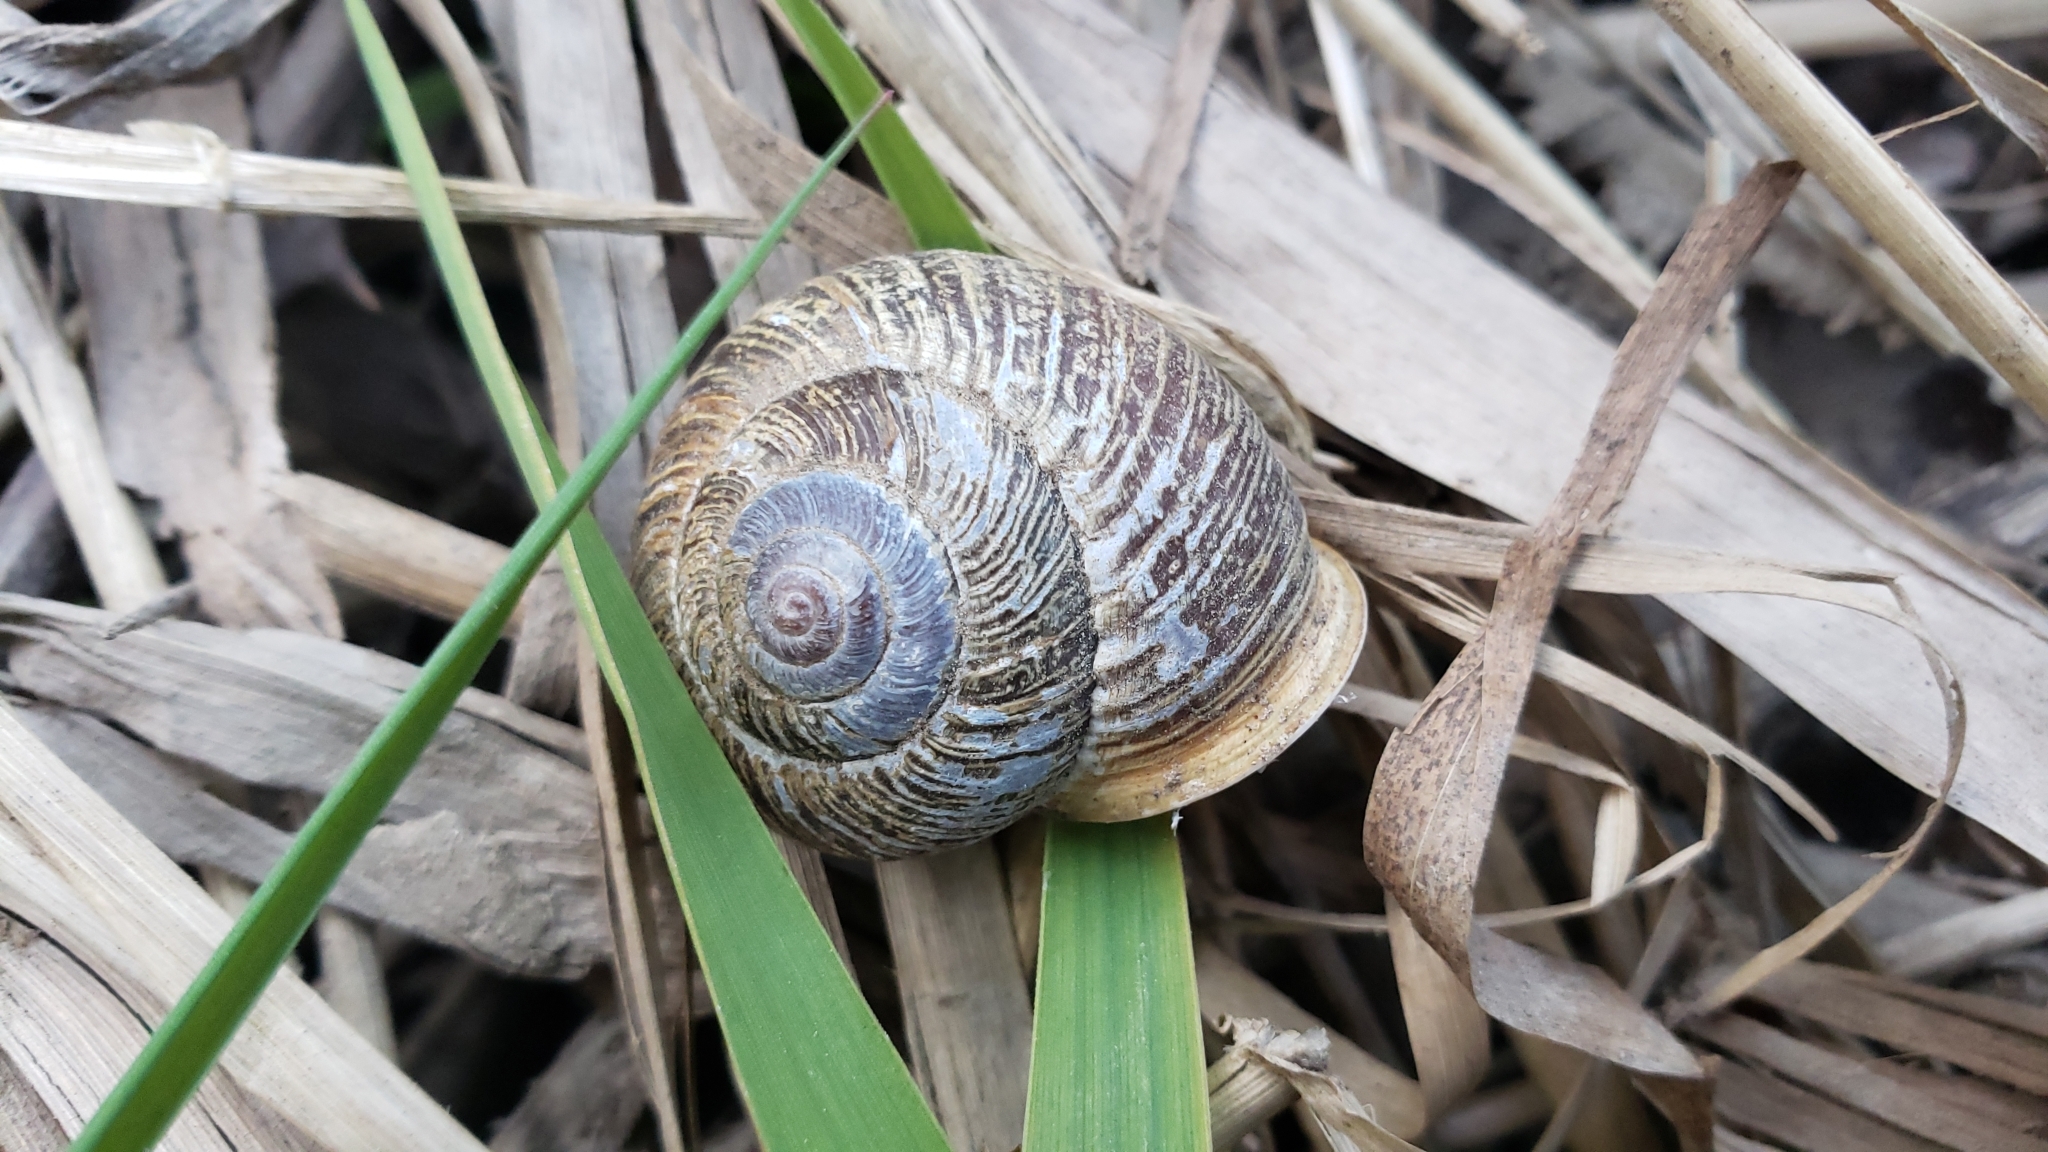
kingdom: Animalia
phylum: Mollusca
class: Gastropoda
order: Stylommatophora
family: Polygyridae
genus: Allogona
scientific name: Allogona townsendiana
